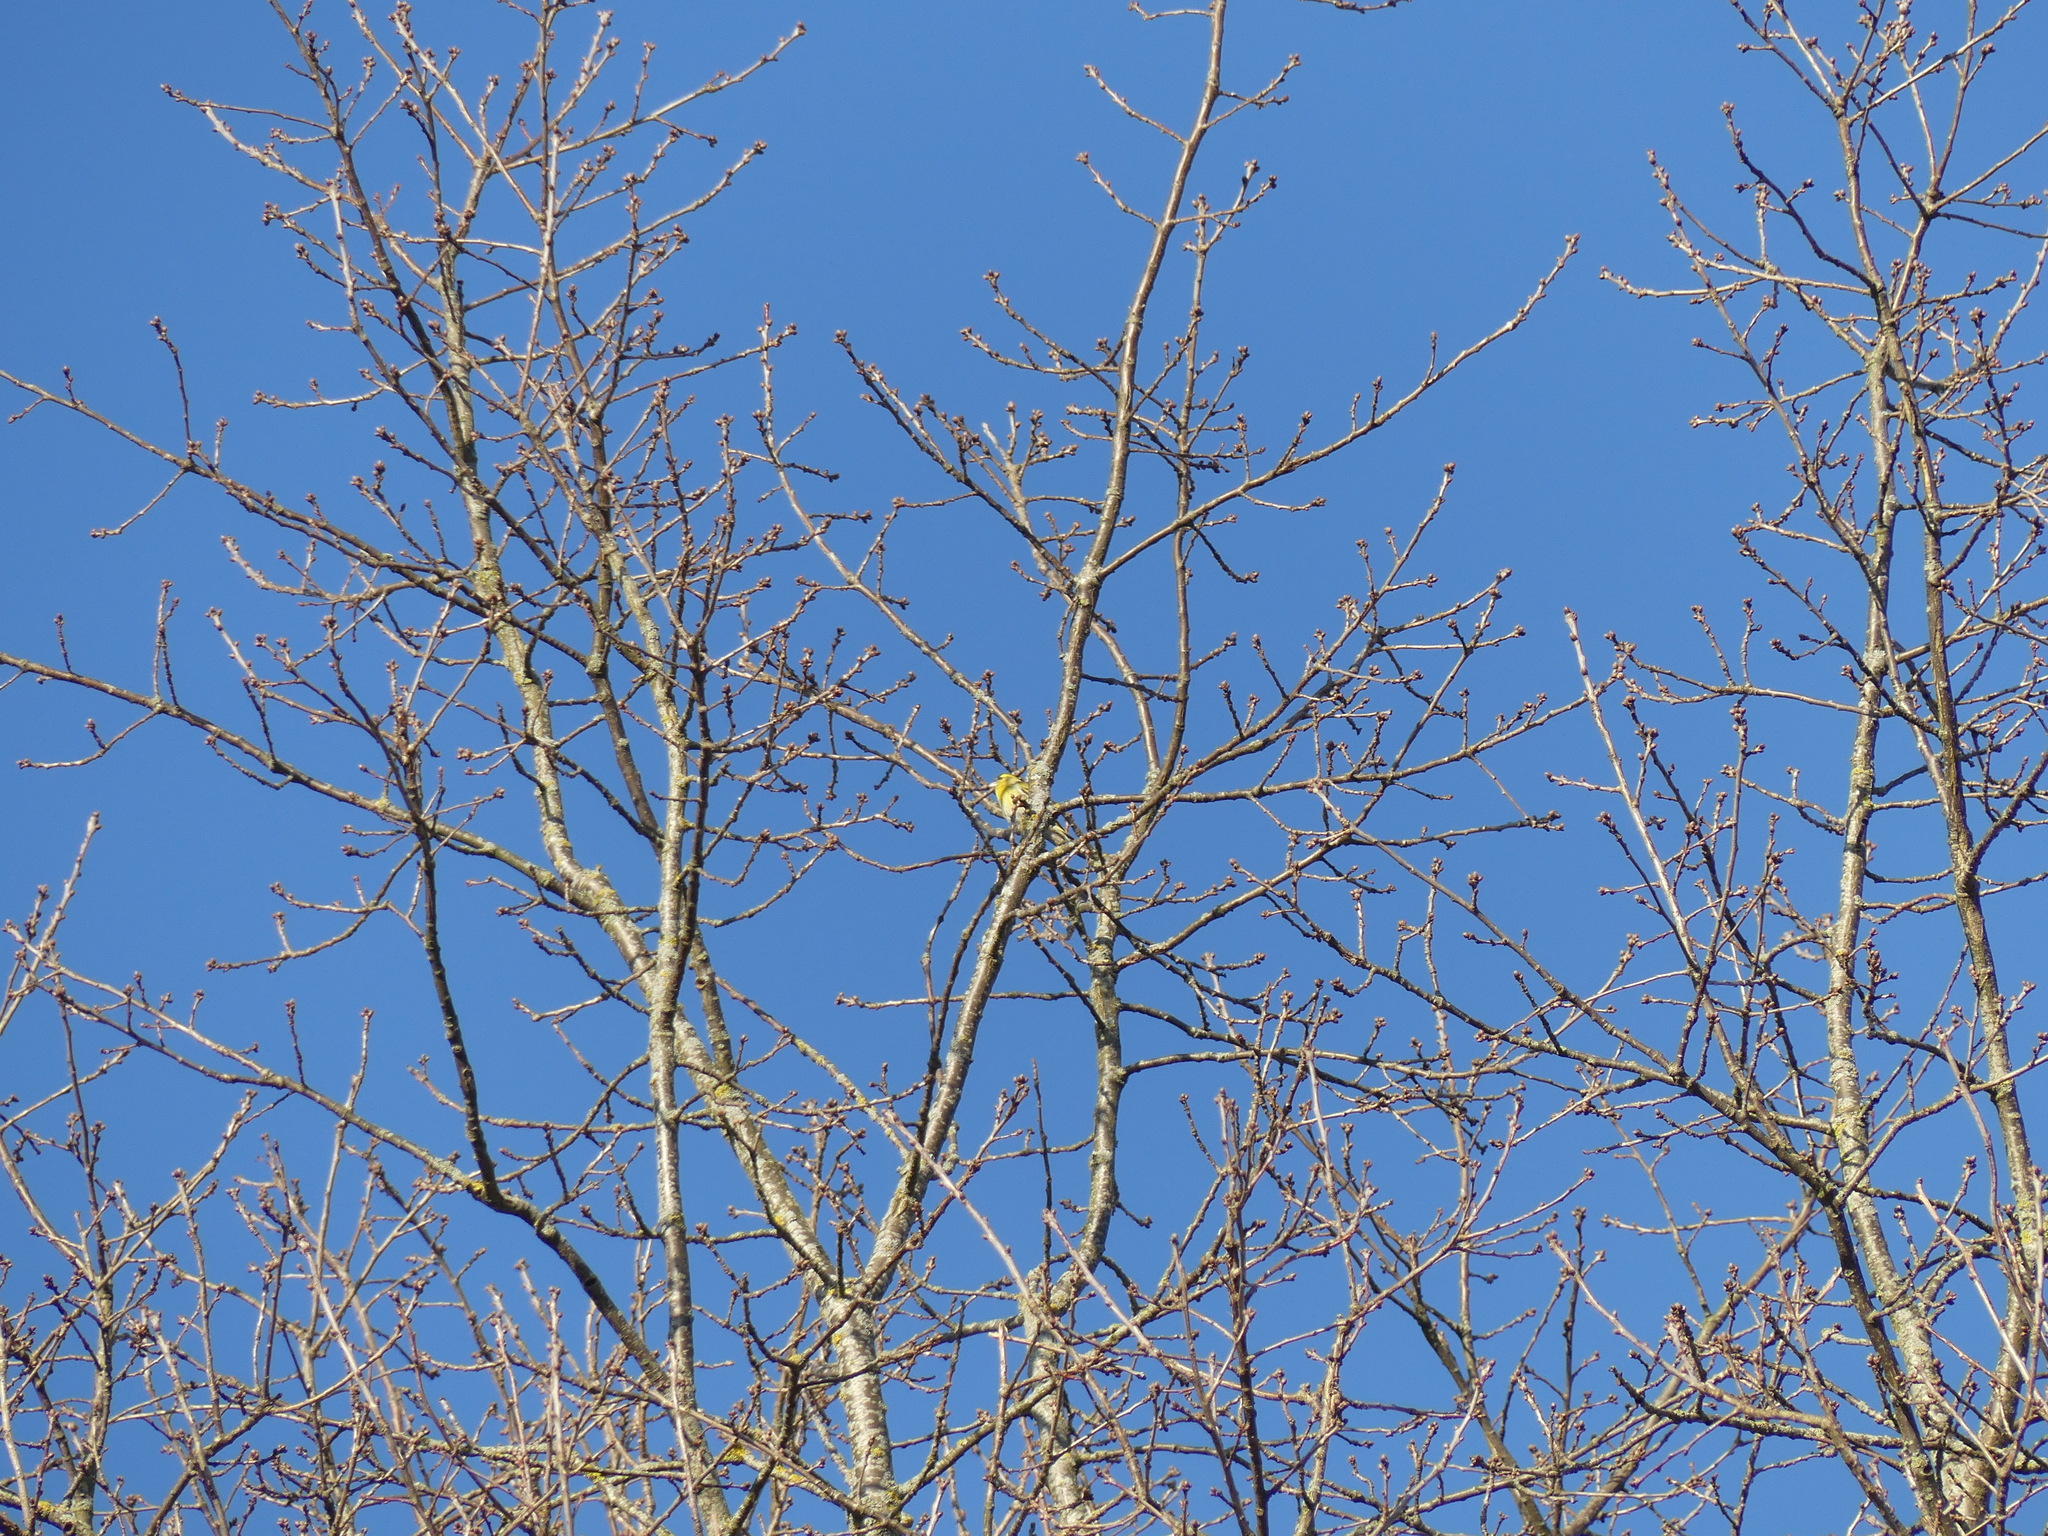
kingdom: Animalia
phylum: Chordata
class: Aves
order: Passeriformes
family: Fringillidae
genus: Spinus
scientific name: Spinus spinus
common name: Eurasian siskin
